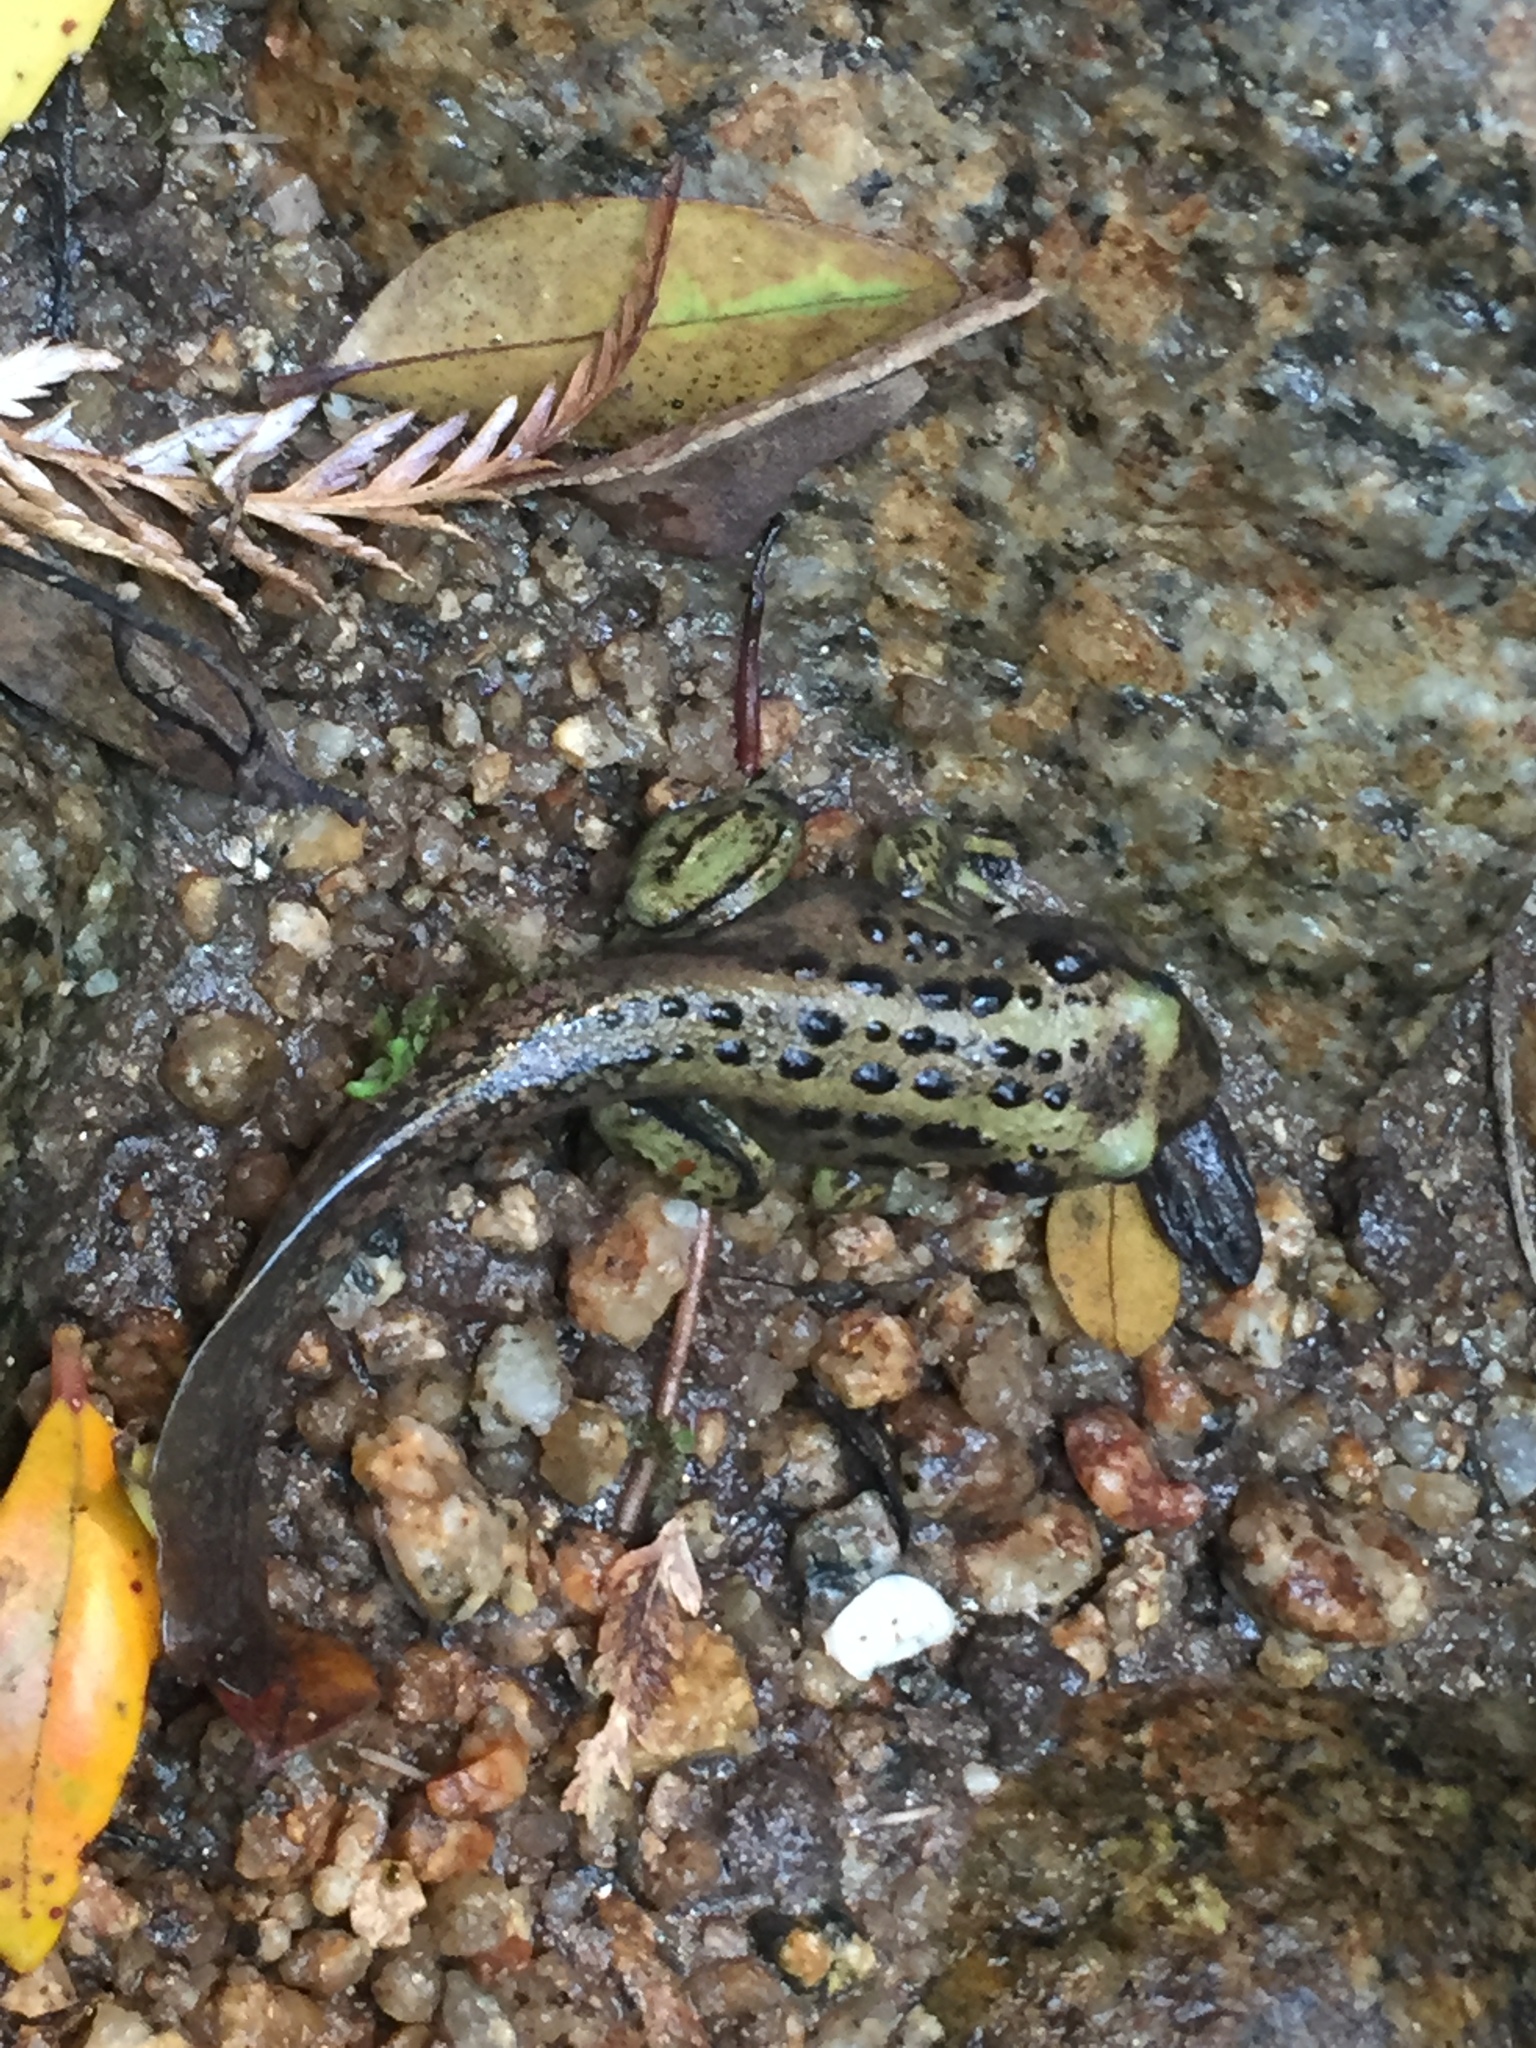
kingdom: Animalia
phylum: Chordata
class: Amphibia
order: Anura
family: Calyptocephalellidae
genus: Telmatobufo
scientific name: Telmatobufo australis
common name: Pelado mountains false toad
